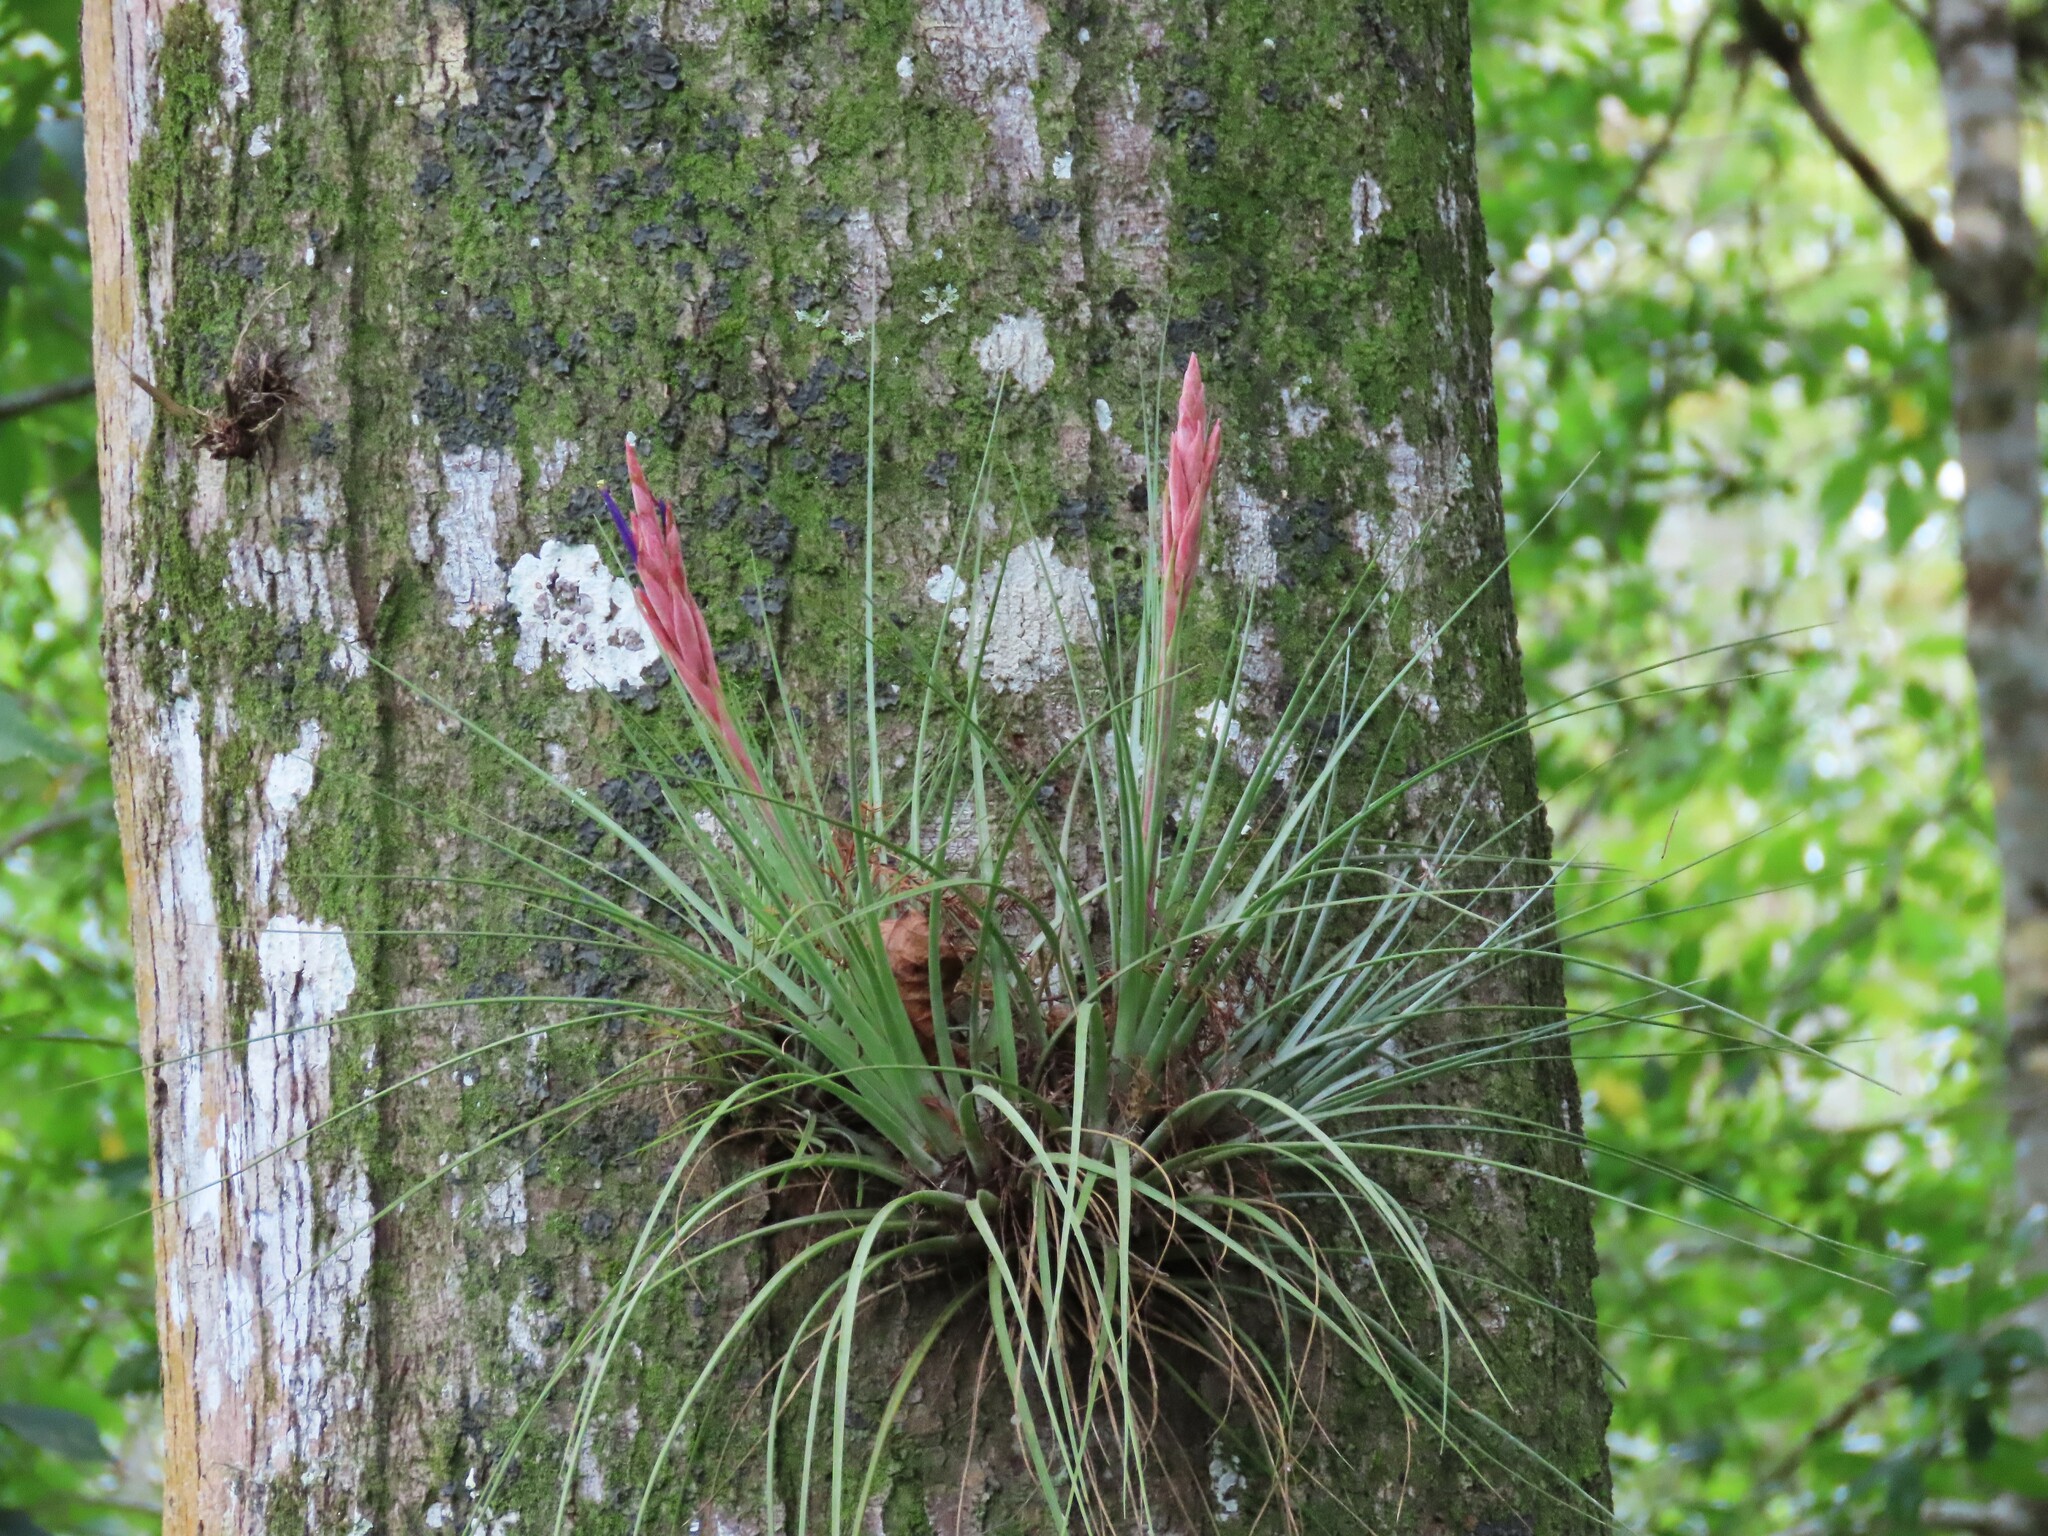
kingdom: Plantae
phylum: Tracheophyta
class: Liliopsida
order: Poales
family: Bromeliaceae
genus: Tillandsia
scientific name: Tillandsia floridana
